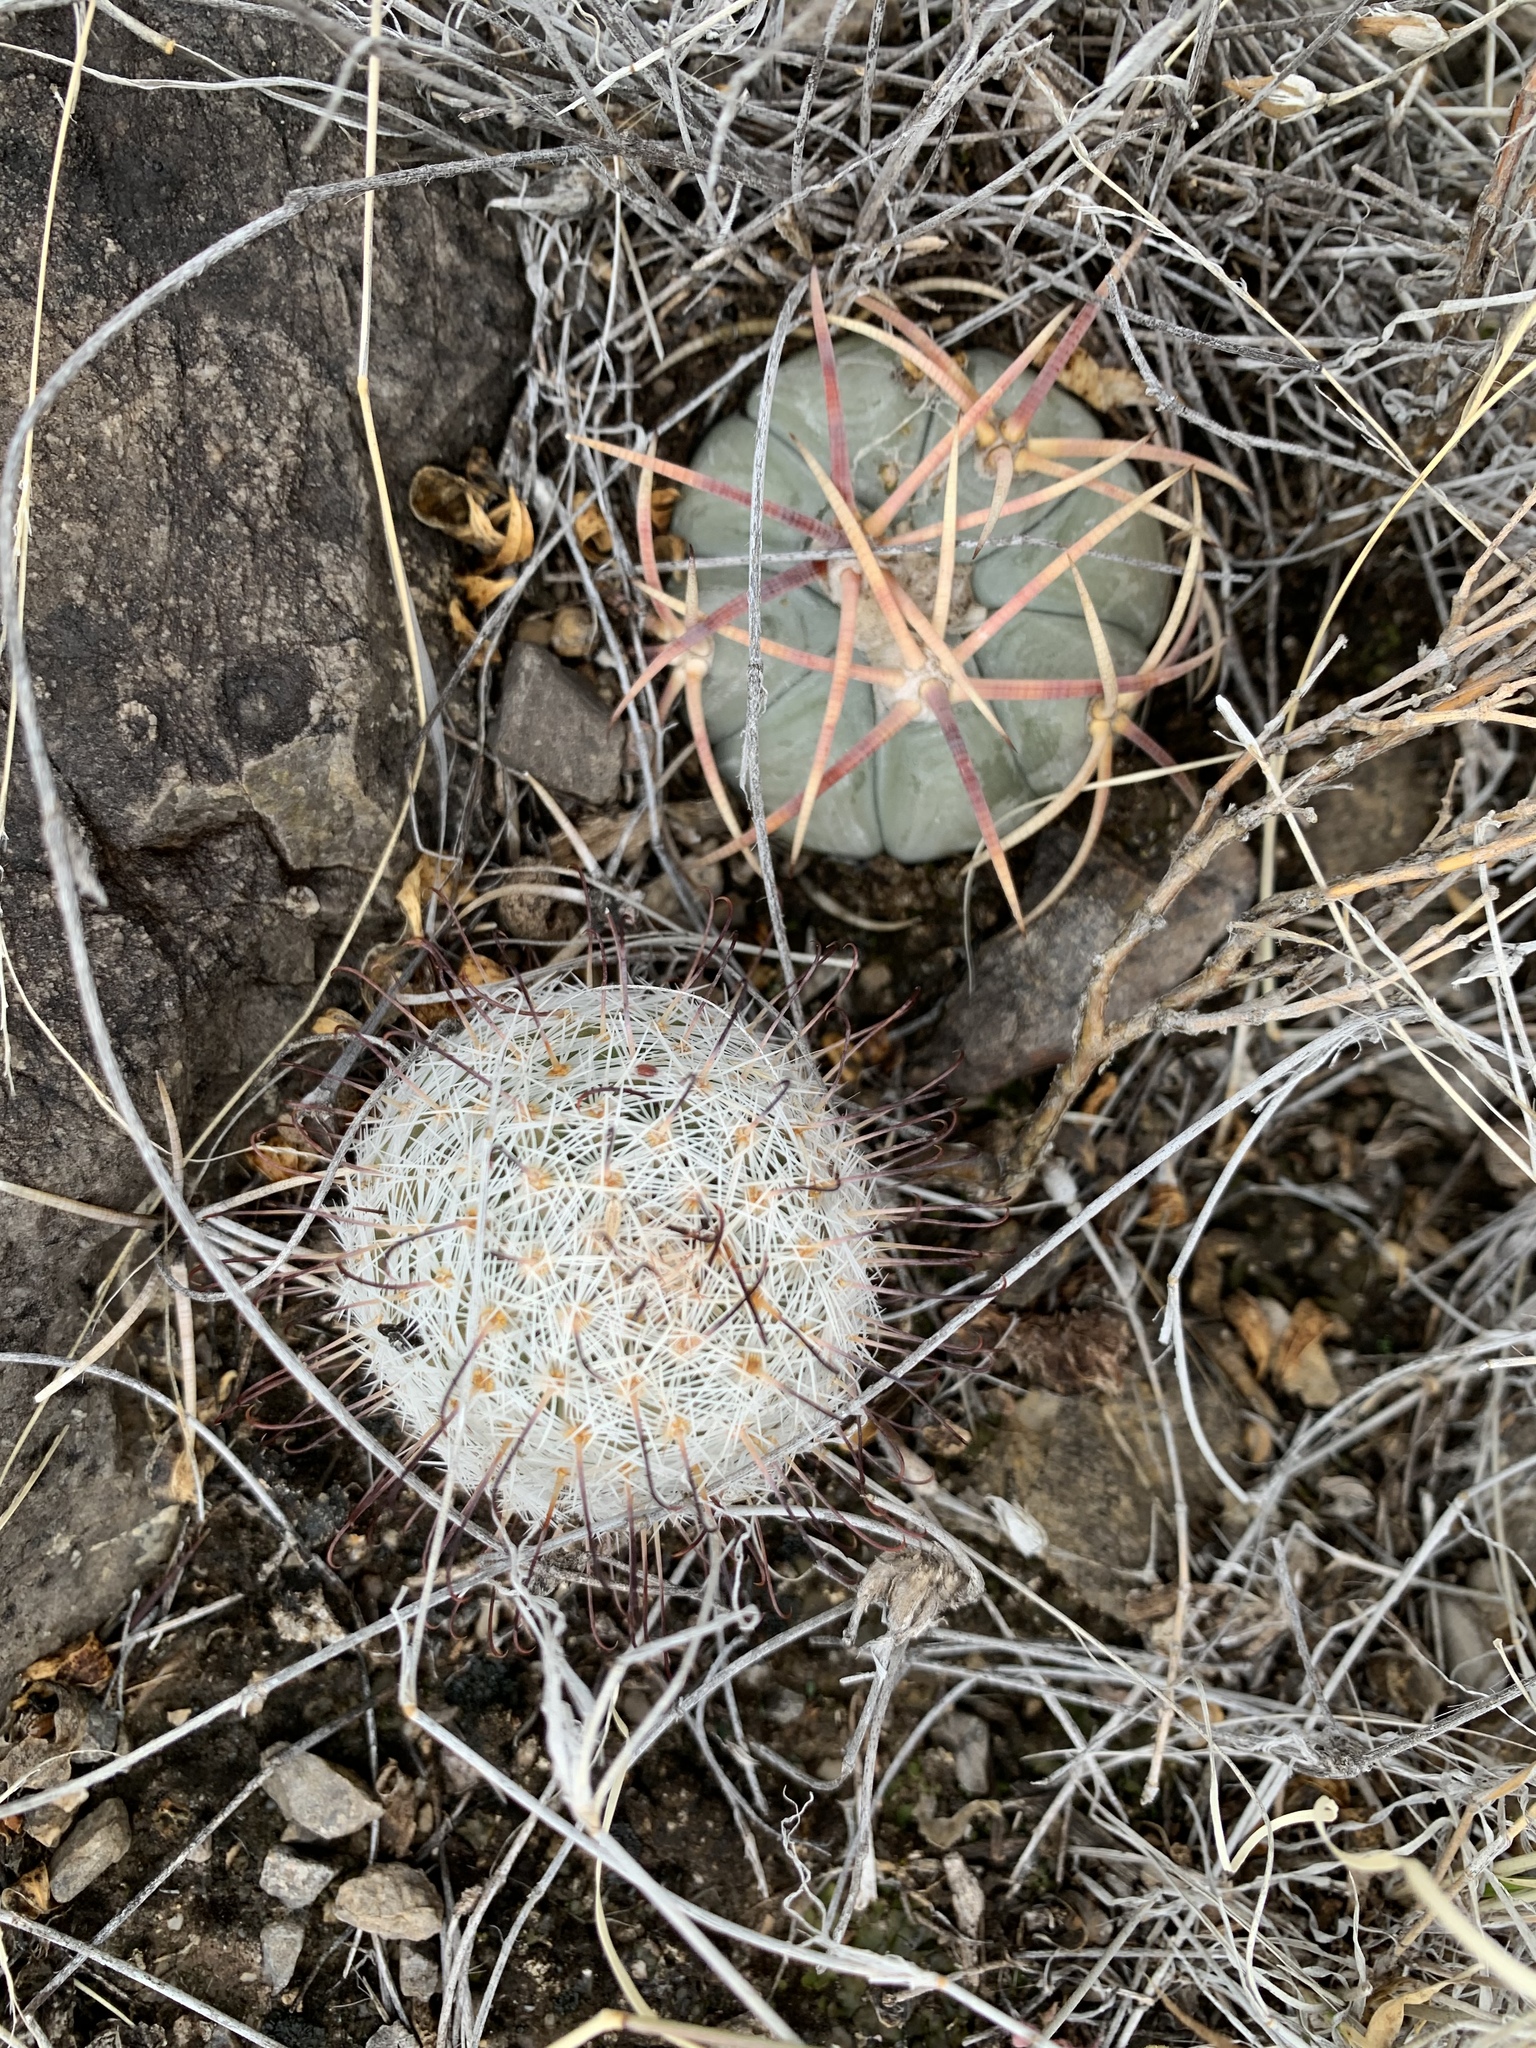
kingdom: Plantae
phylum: Tracheophyta
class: Magnoliopsida
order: Caryophyllales
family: Cactaceae
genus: Cochemiea
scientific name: Cochemiea grahamii
